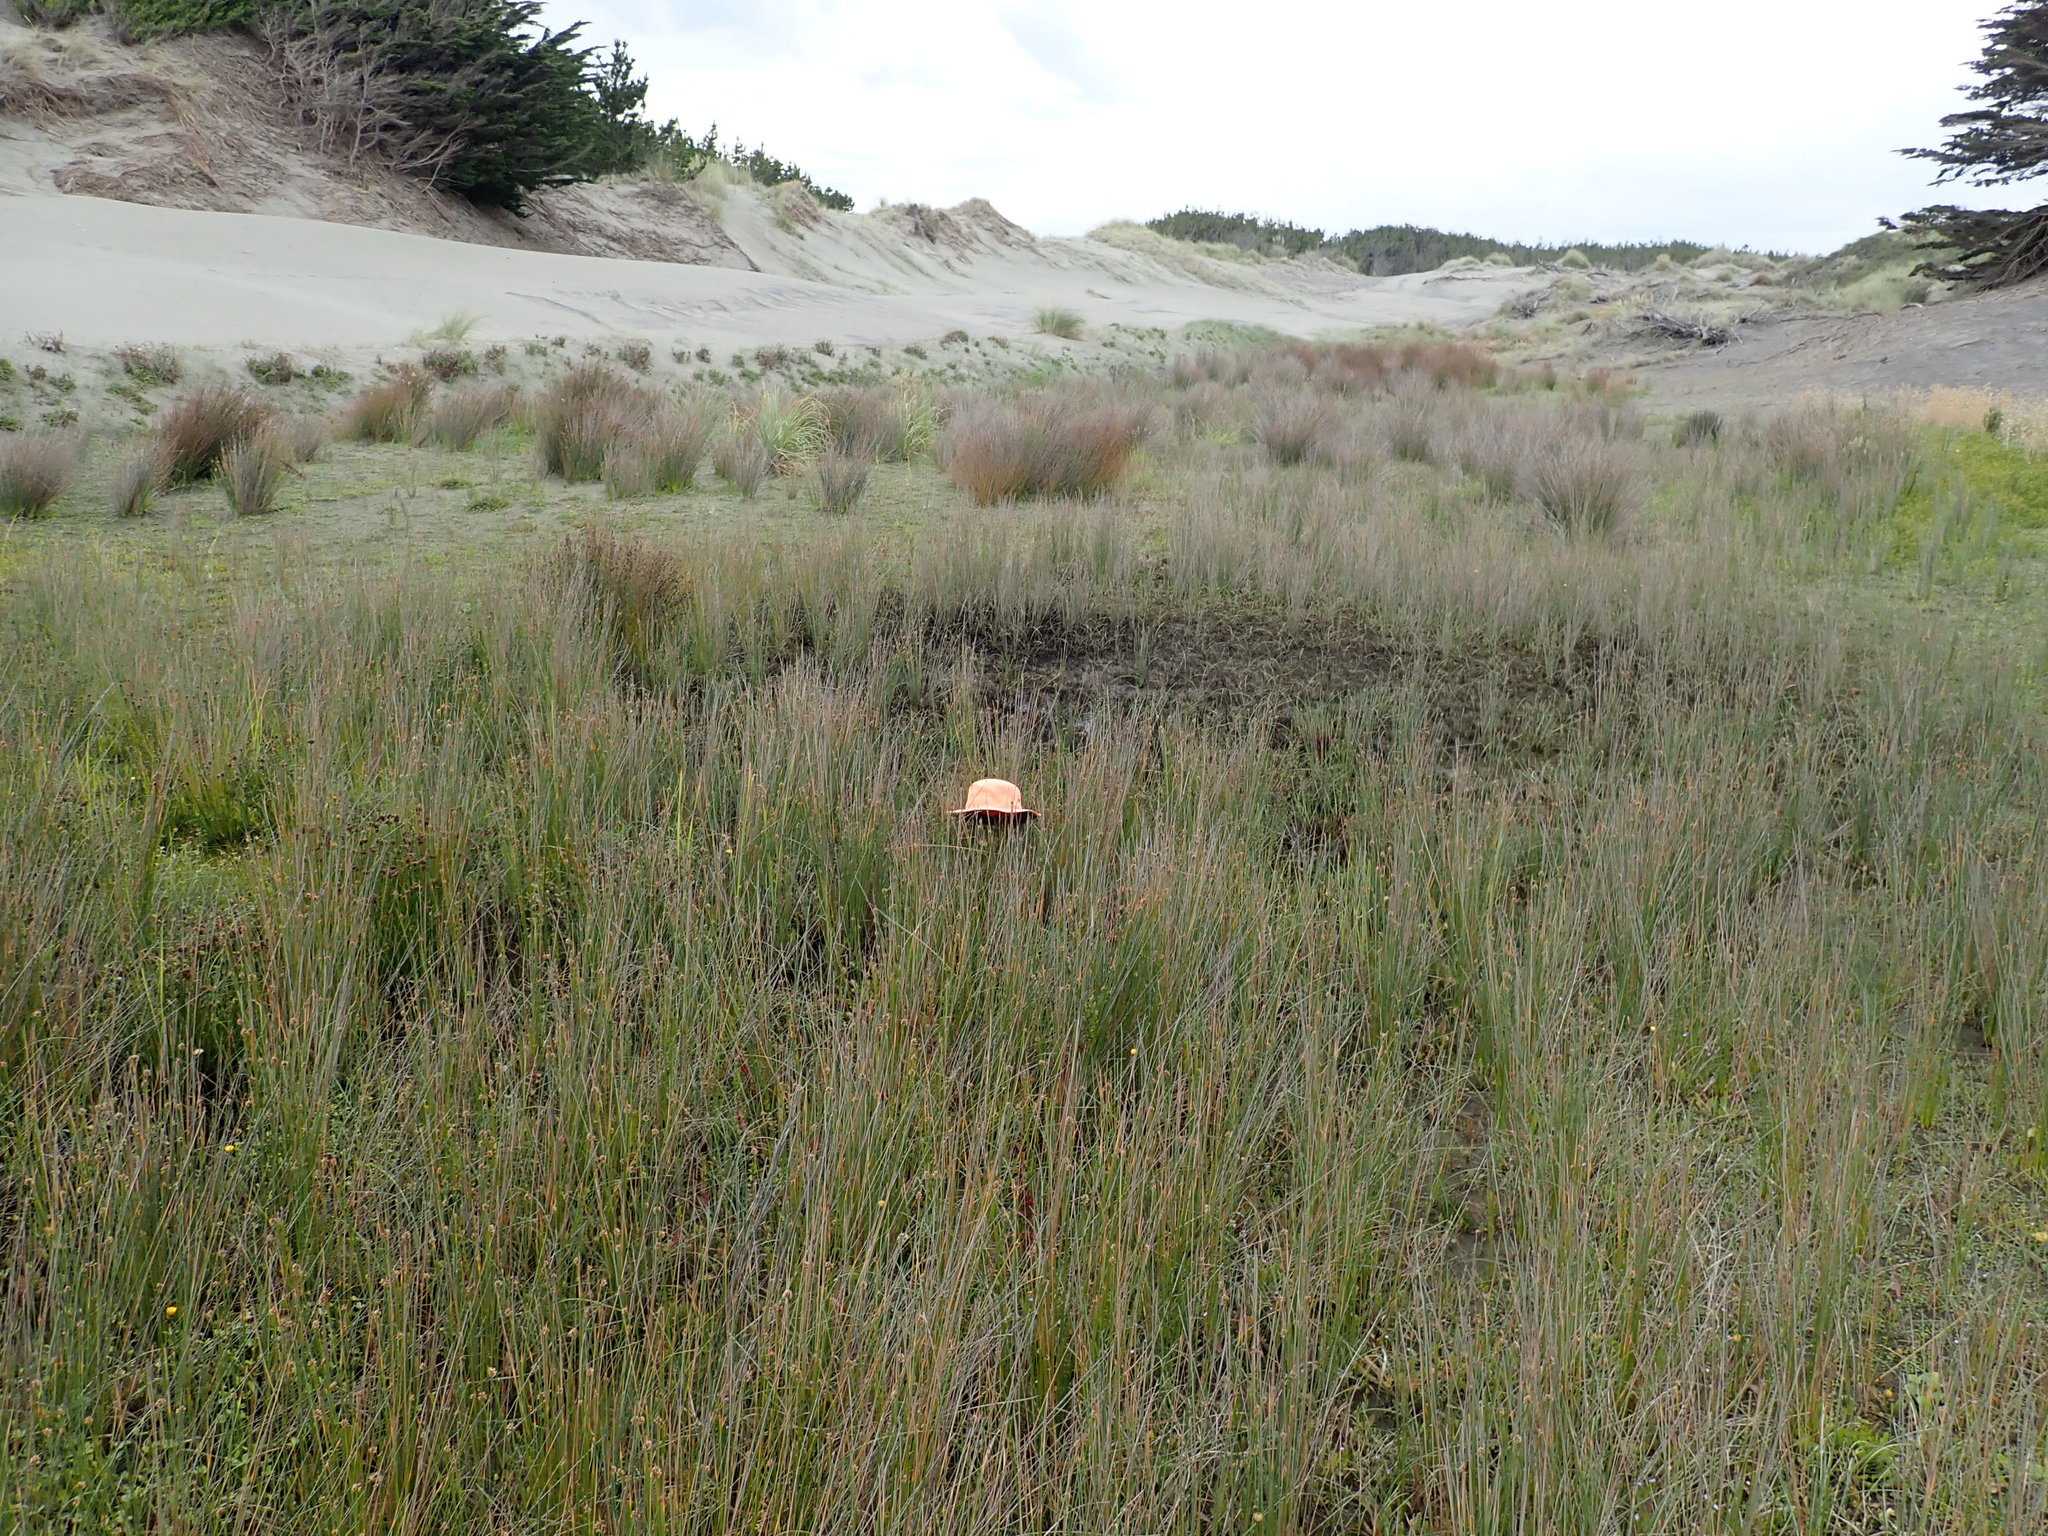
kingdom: Plantae
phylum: Tracheophyta
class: Liliopsida
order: Poales
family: Juncaceae
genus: Juncus
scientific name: Juncus articulatus
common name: Jointed rush
